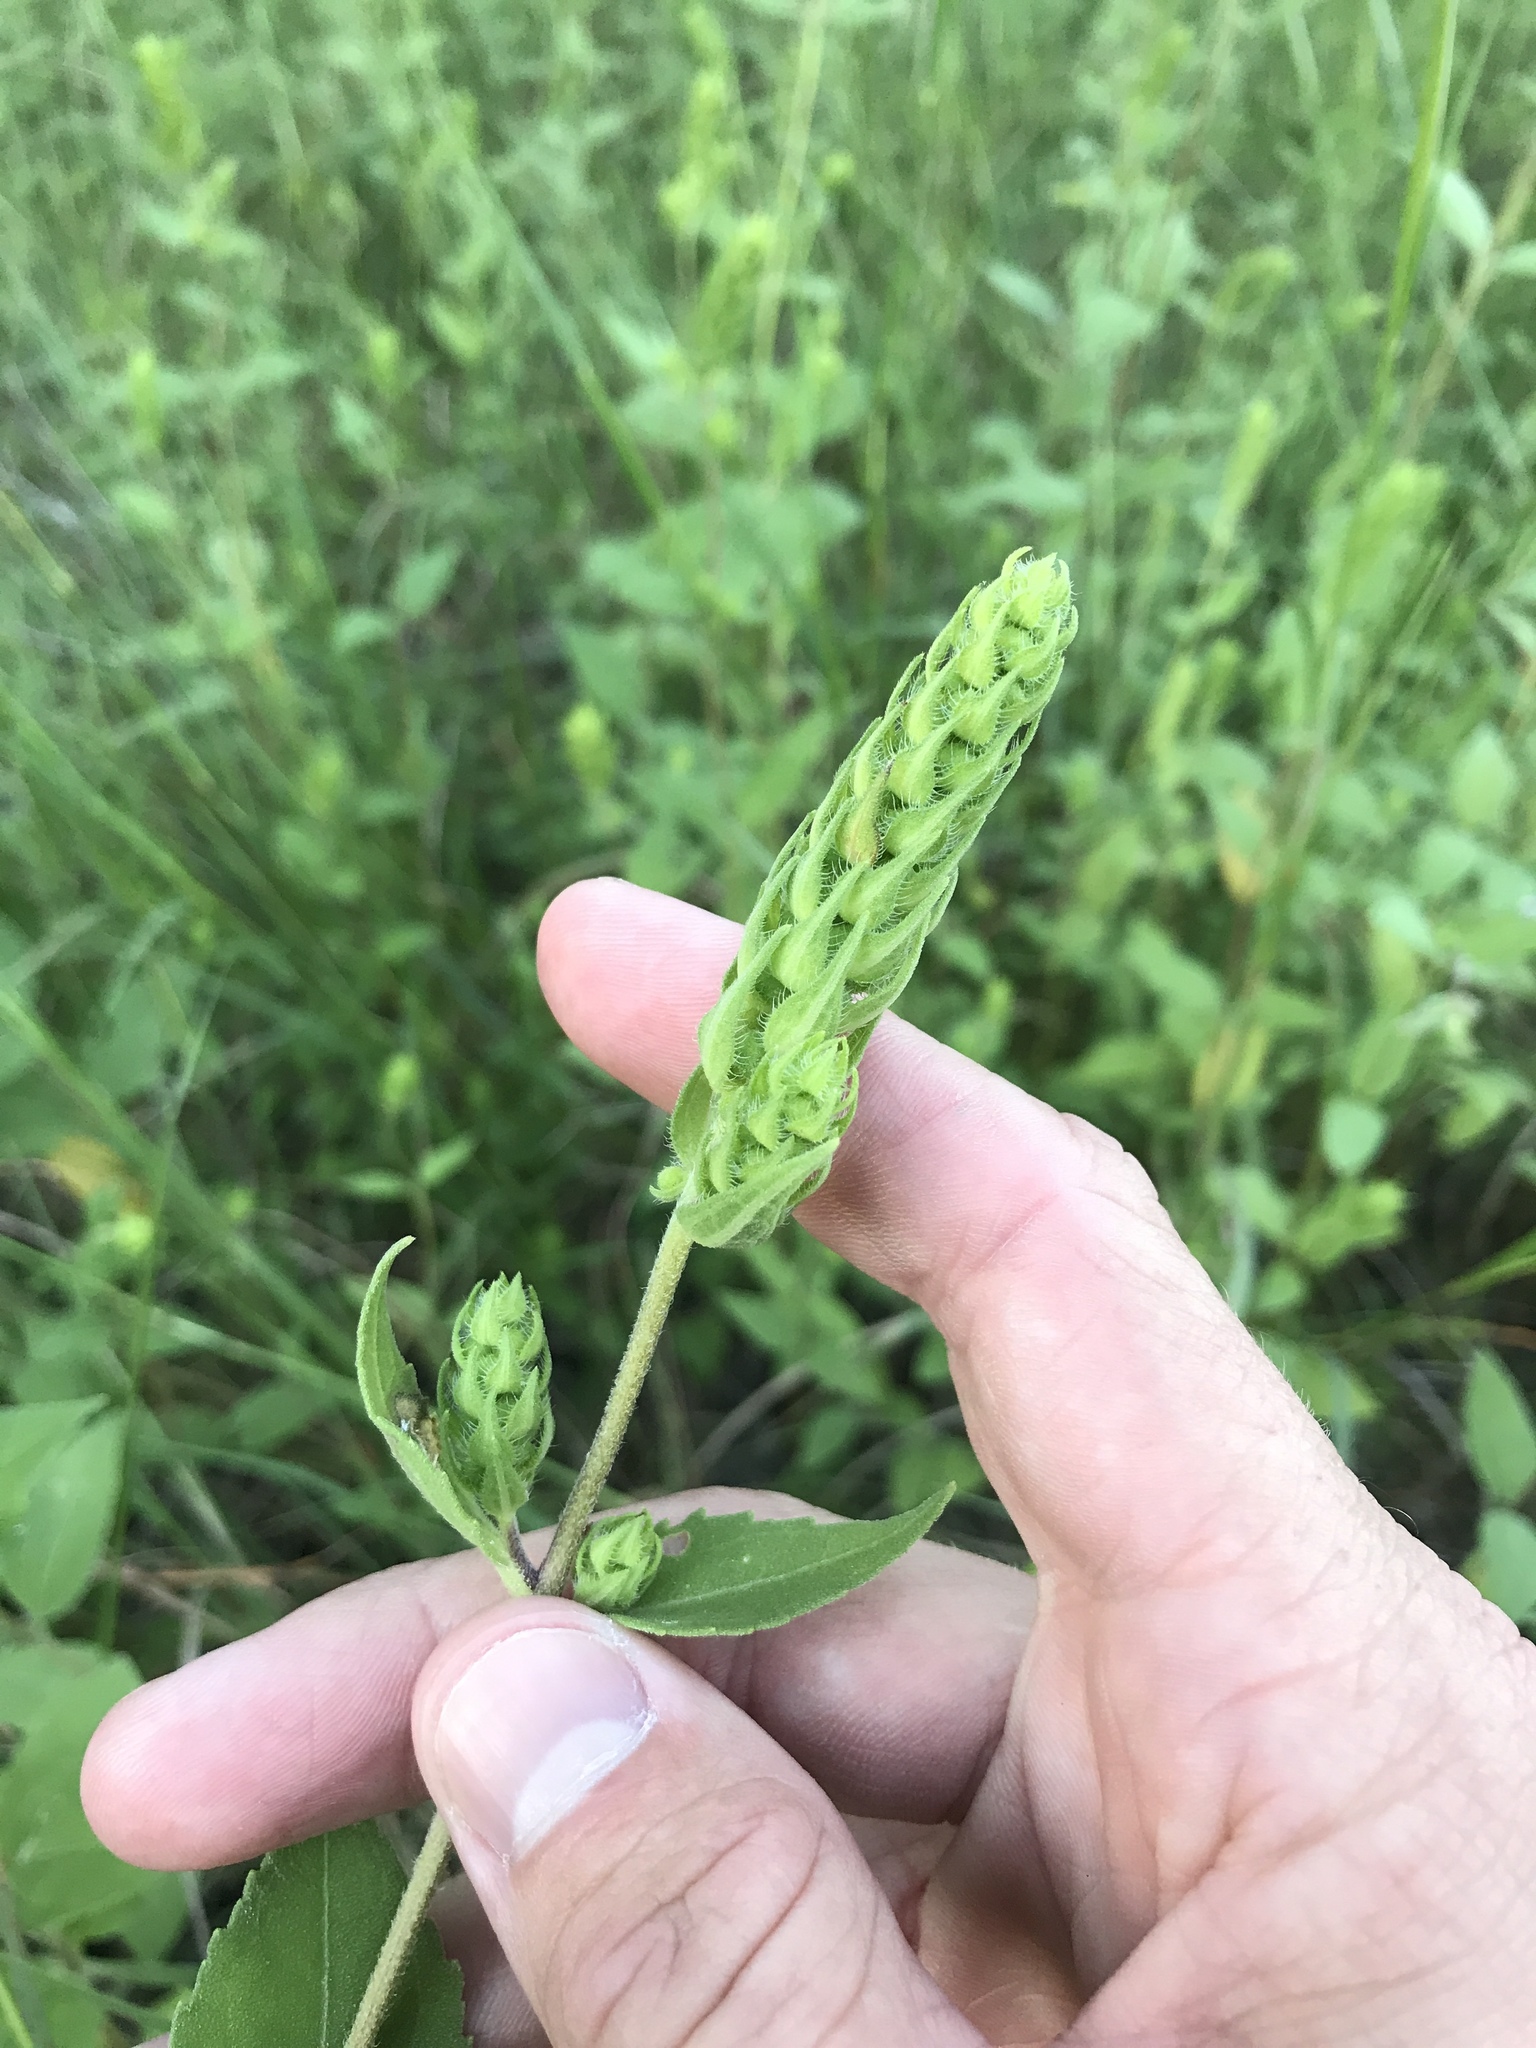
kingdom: Plantae
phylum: Tracheophyta
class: Magnoliopsida
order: Asterales
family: Asteraceae
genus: Iva
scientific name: Iva annua
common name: Marsh-elder
